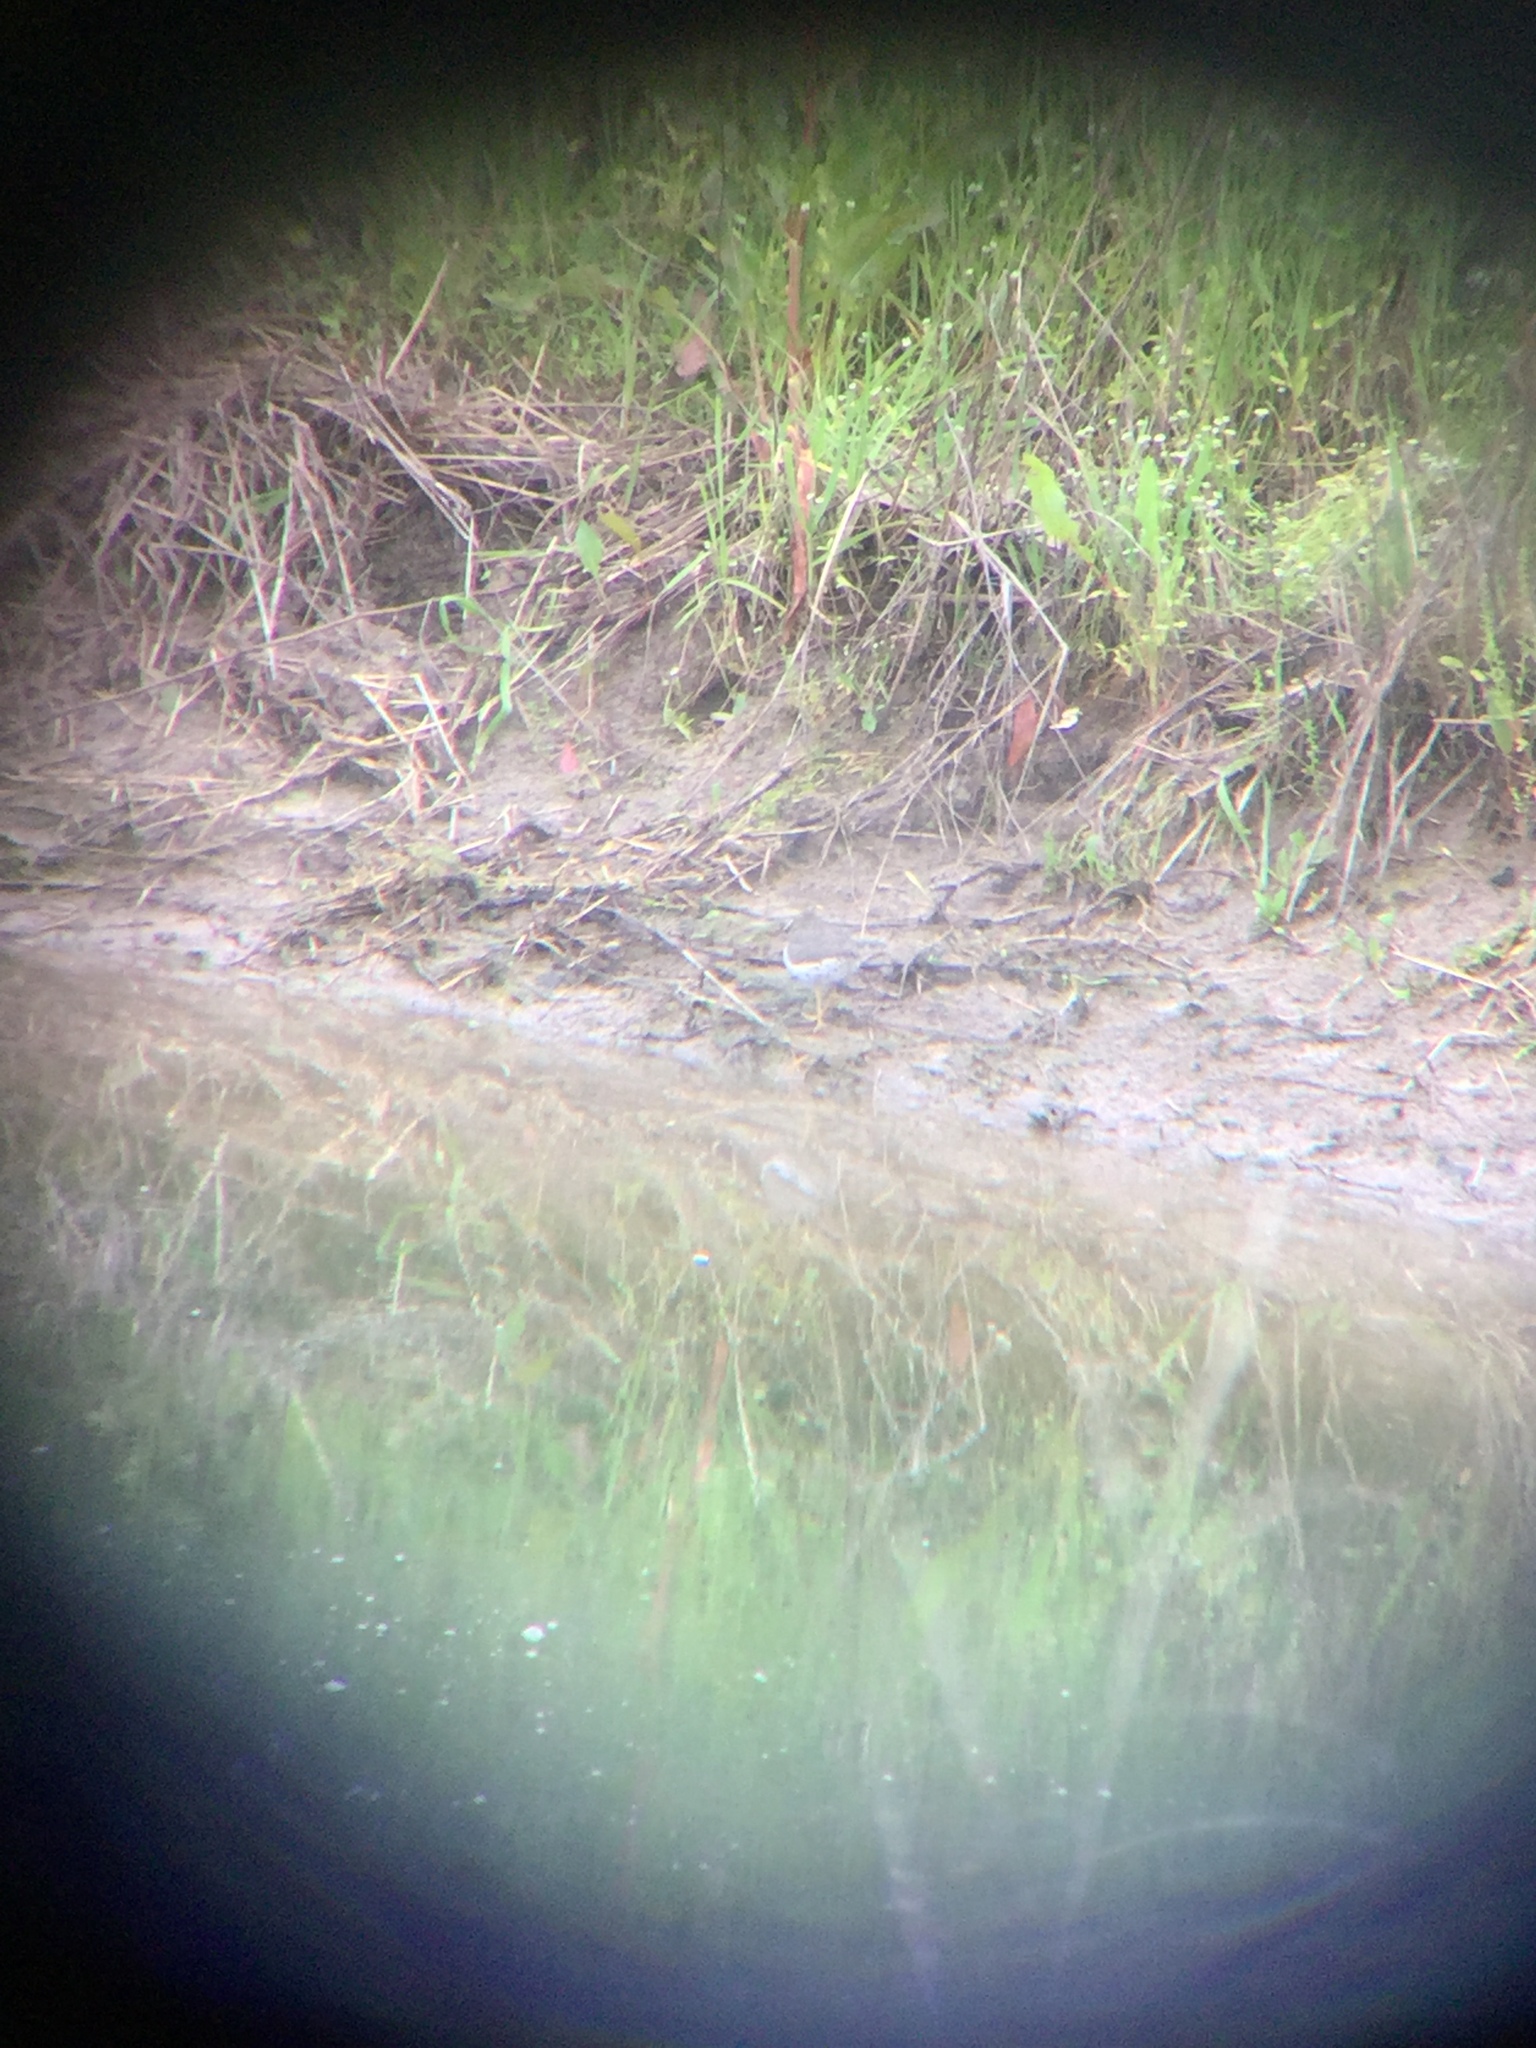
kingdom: Animalia
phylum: Chordata
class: Aves
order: Charadriiformes
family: Scolopacidae
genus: Actitis
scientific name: Actitis macularius
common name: Spotted sandpiper
